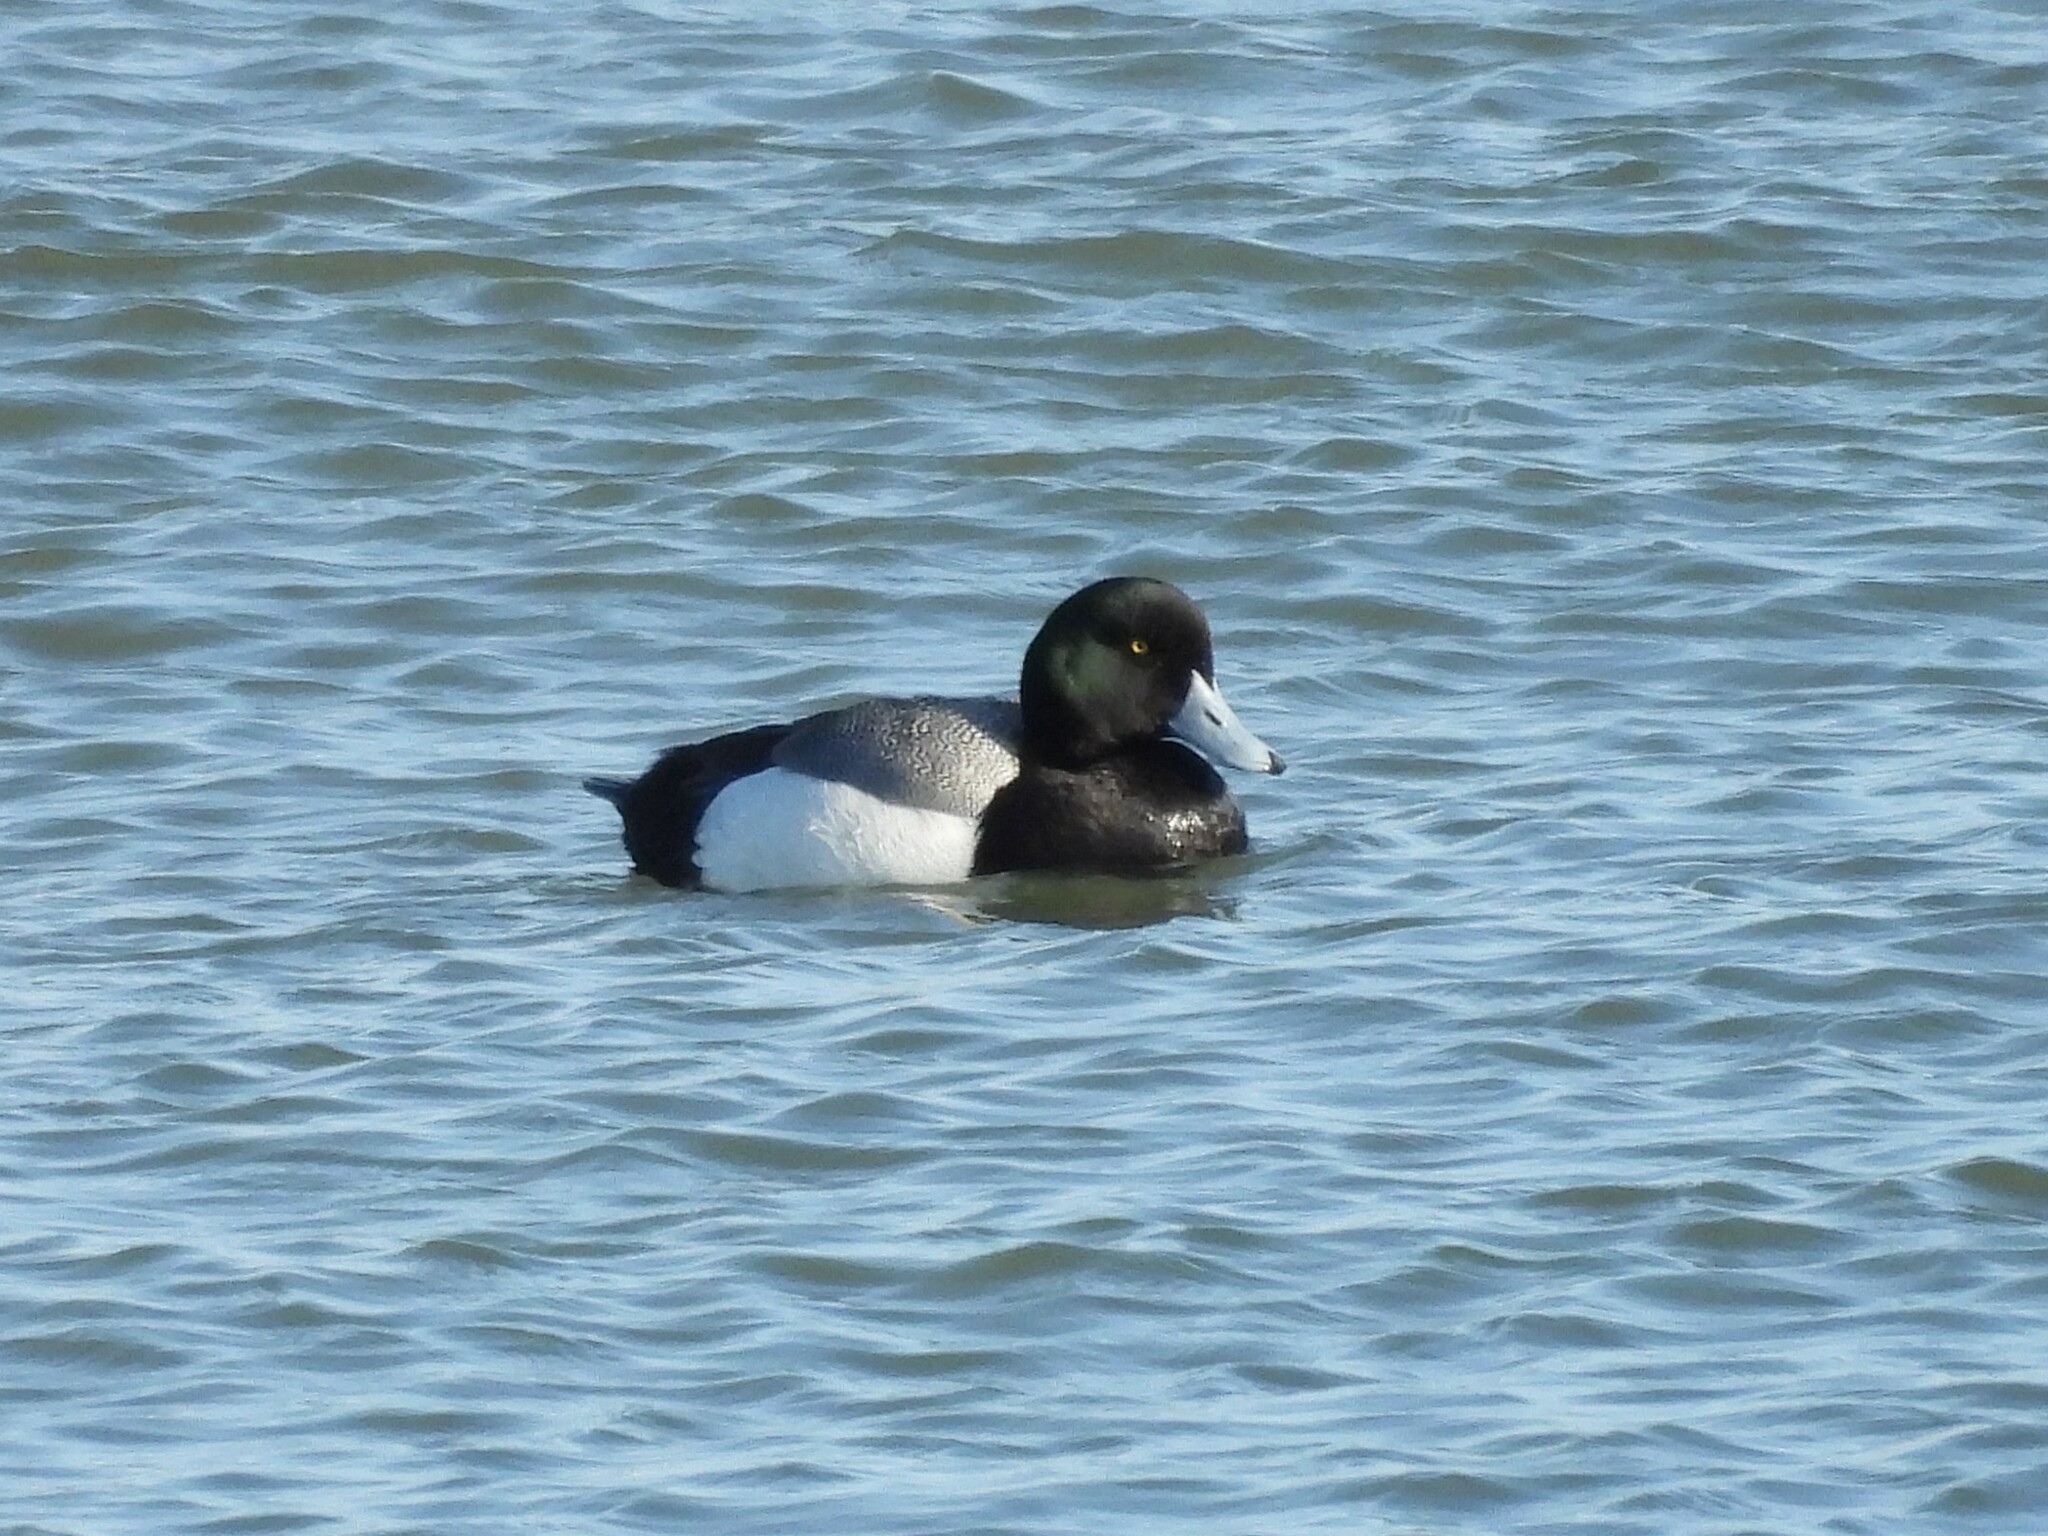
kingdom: Animalia
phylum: Chordata
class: Aves
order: Anseriformes
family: Anatidae
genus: Aythya
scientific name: Aythya marila
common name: Greater scaup
